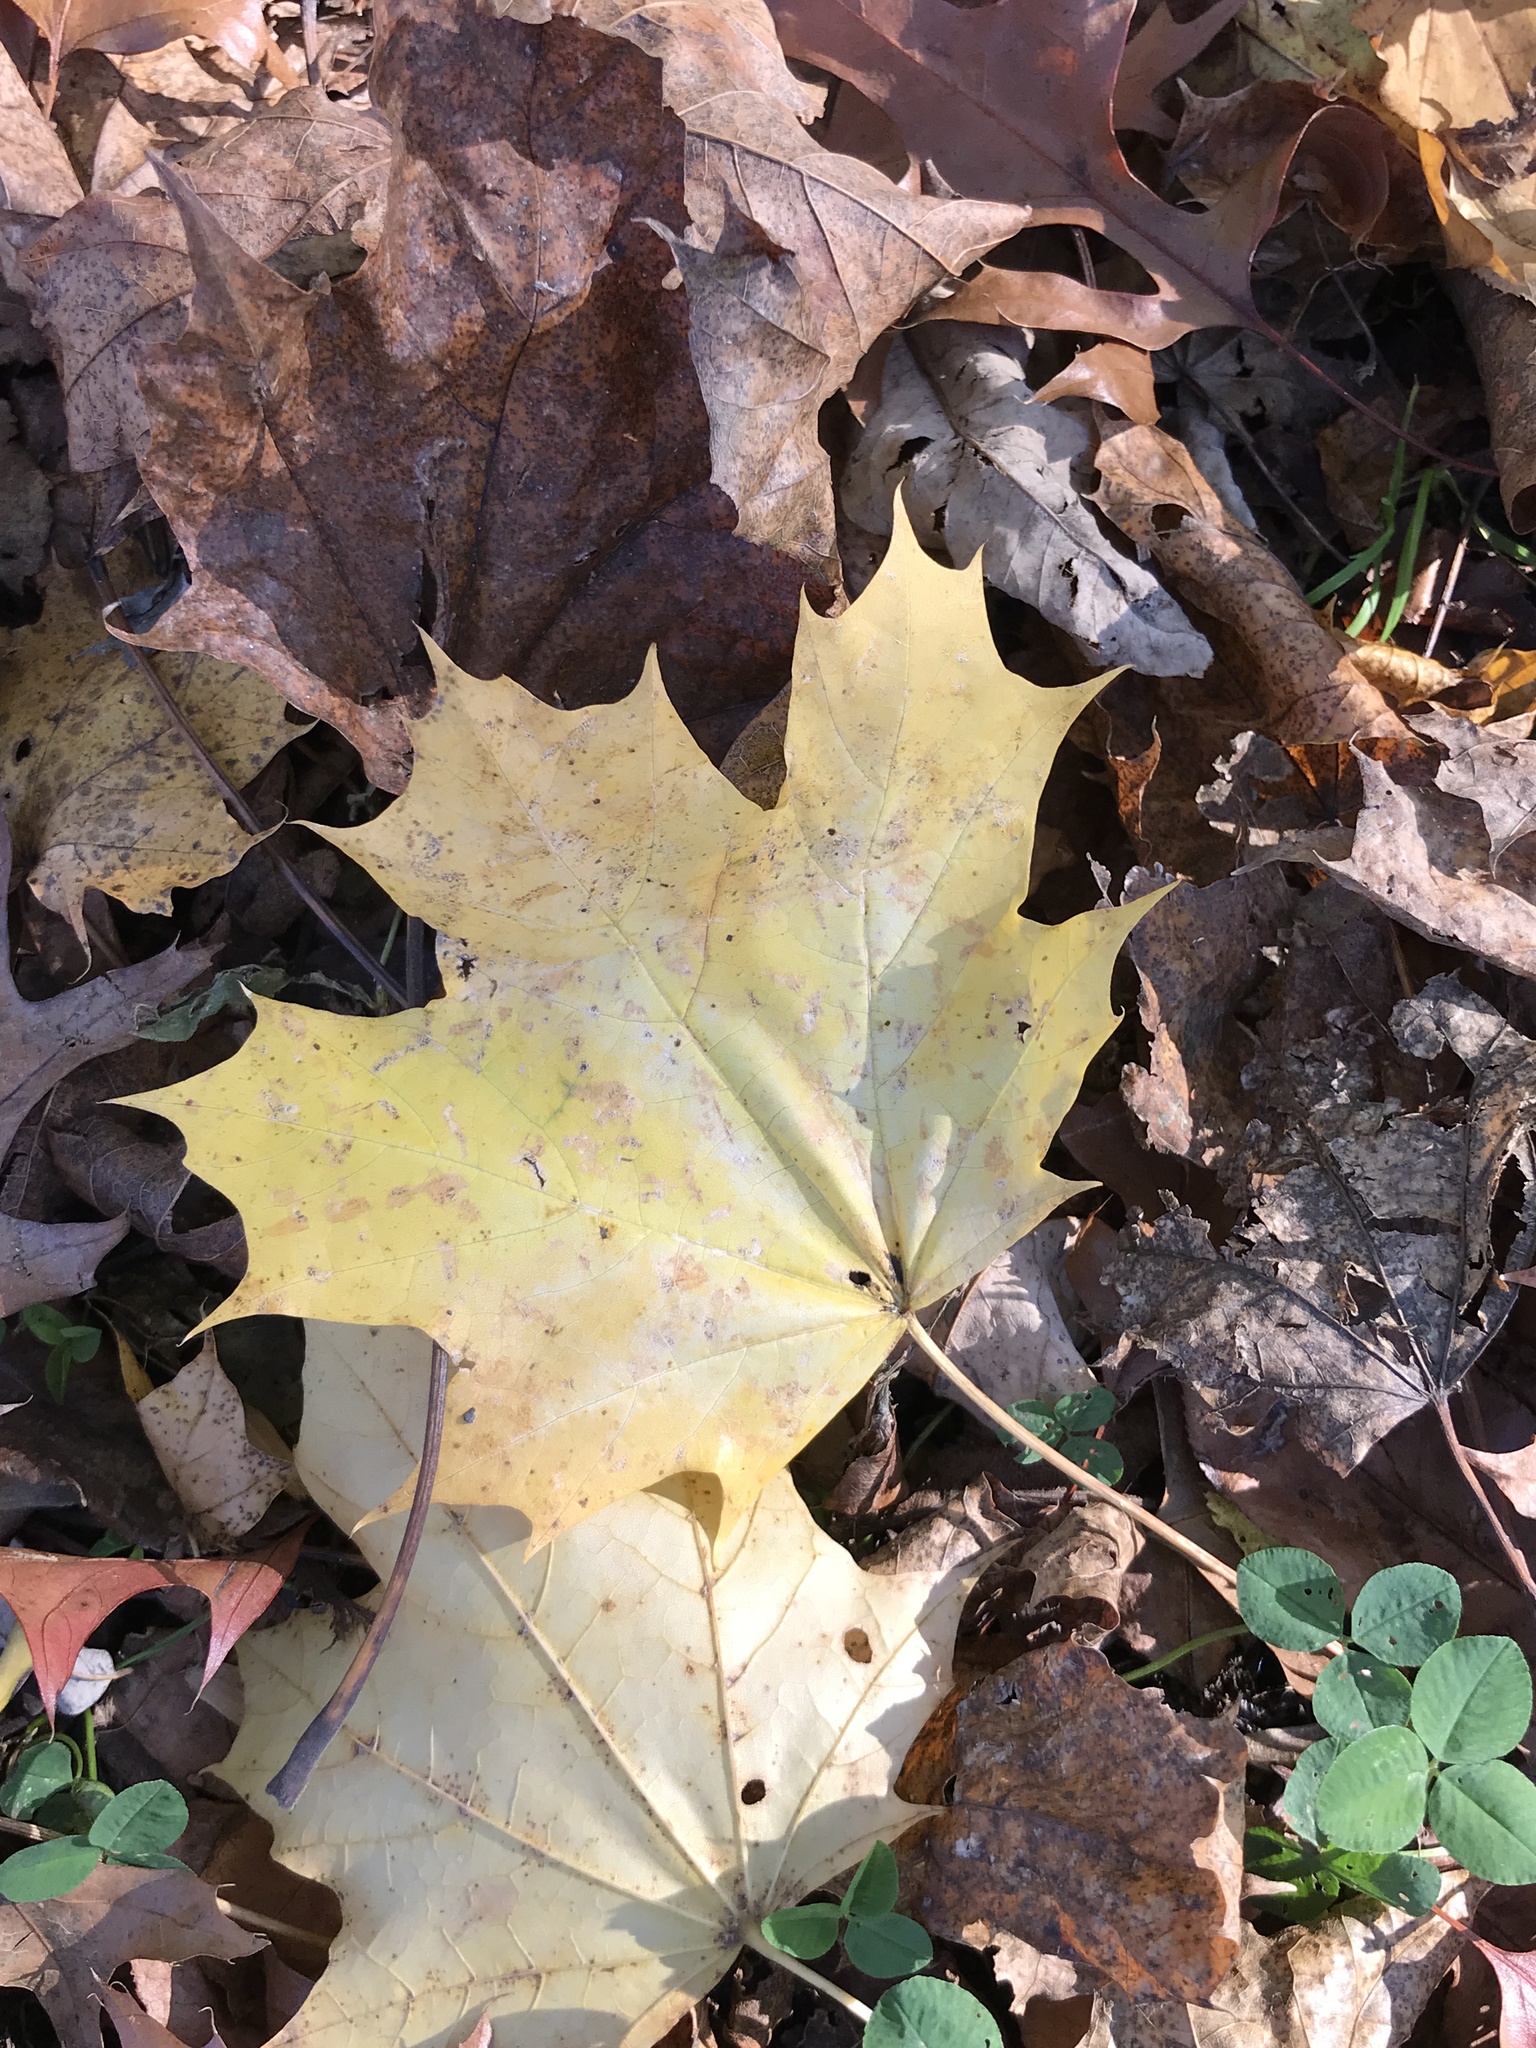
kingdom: Plantae
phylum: Tracheophyta
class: Magnoliopsida
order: Sapindales
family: Sapindaceae
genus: Acer
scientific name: Acer platanoides
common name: Norway maple
